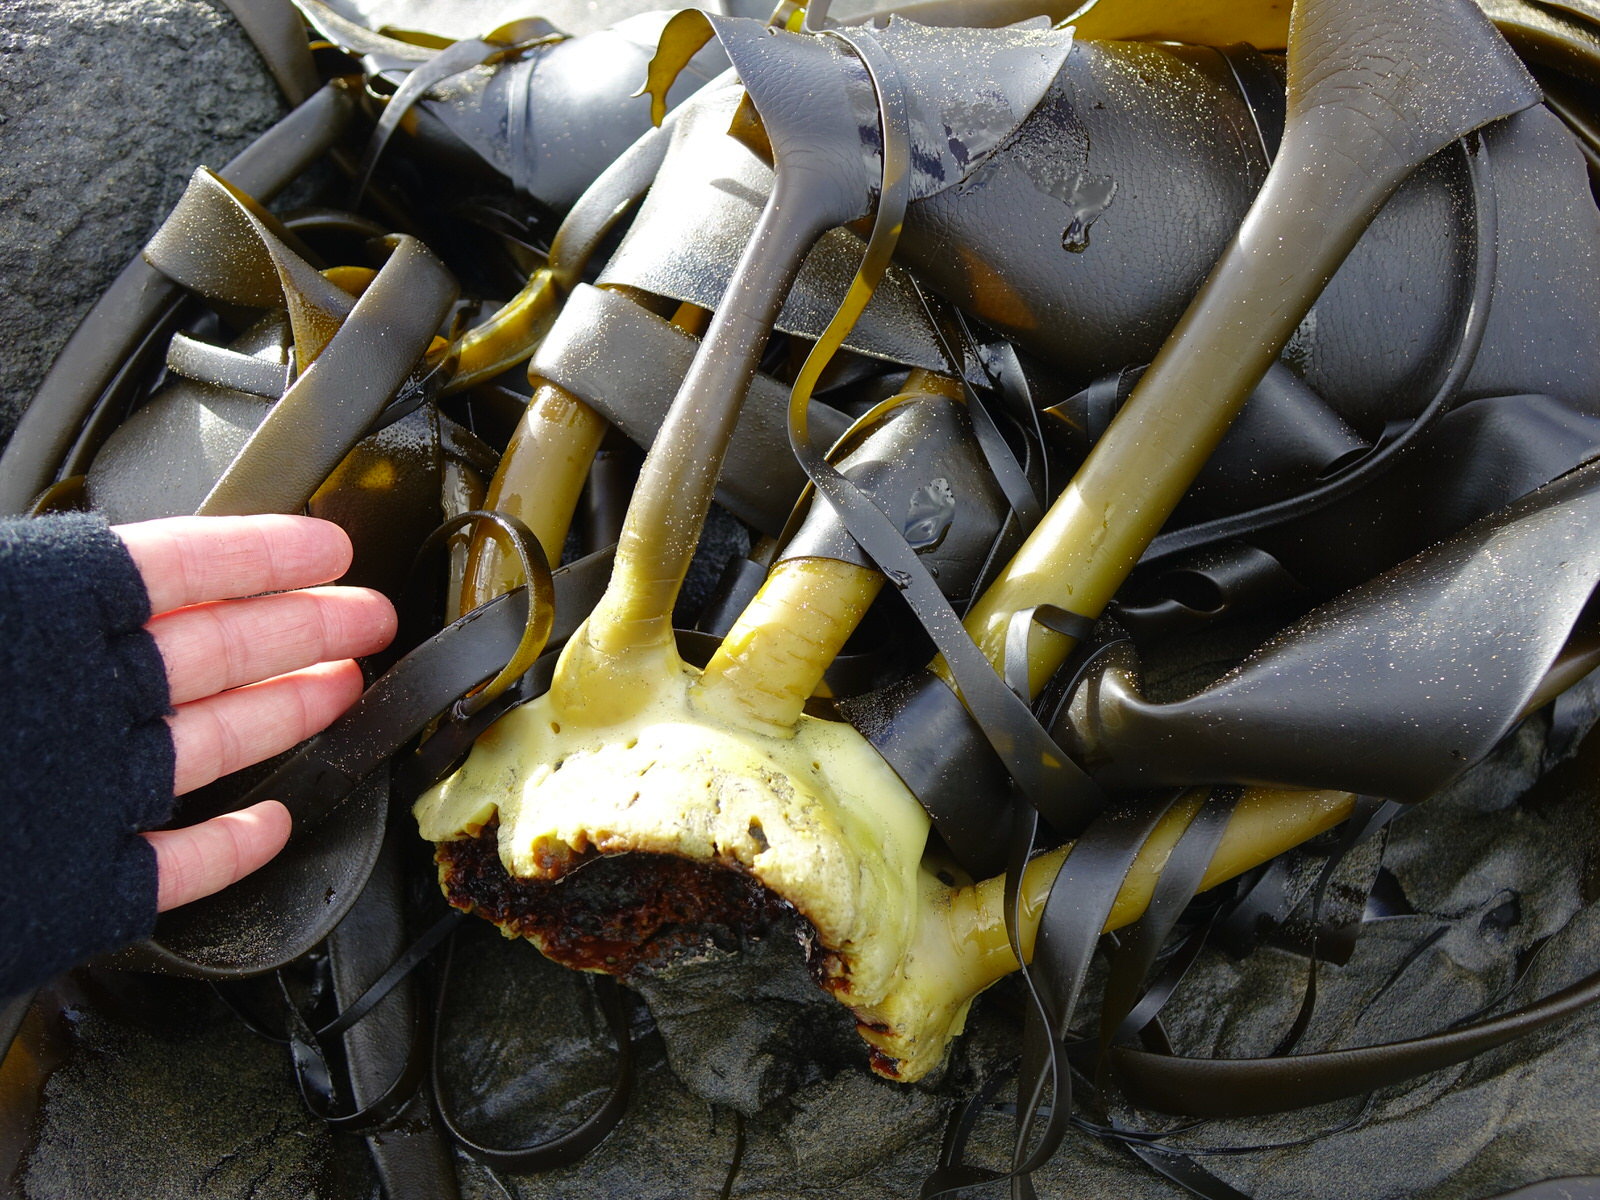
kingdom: Chromista
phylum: Ochrophyta
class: Phaeophyceae
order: Fucales
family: Durvillaeaceae
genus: Durvillaea
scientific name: Durvillaea antarctica
